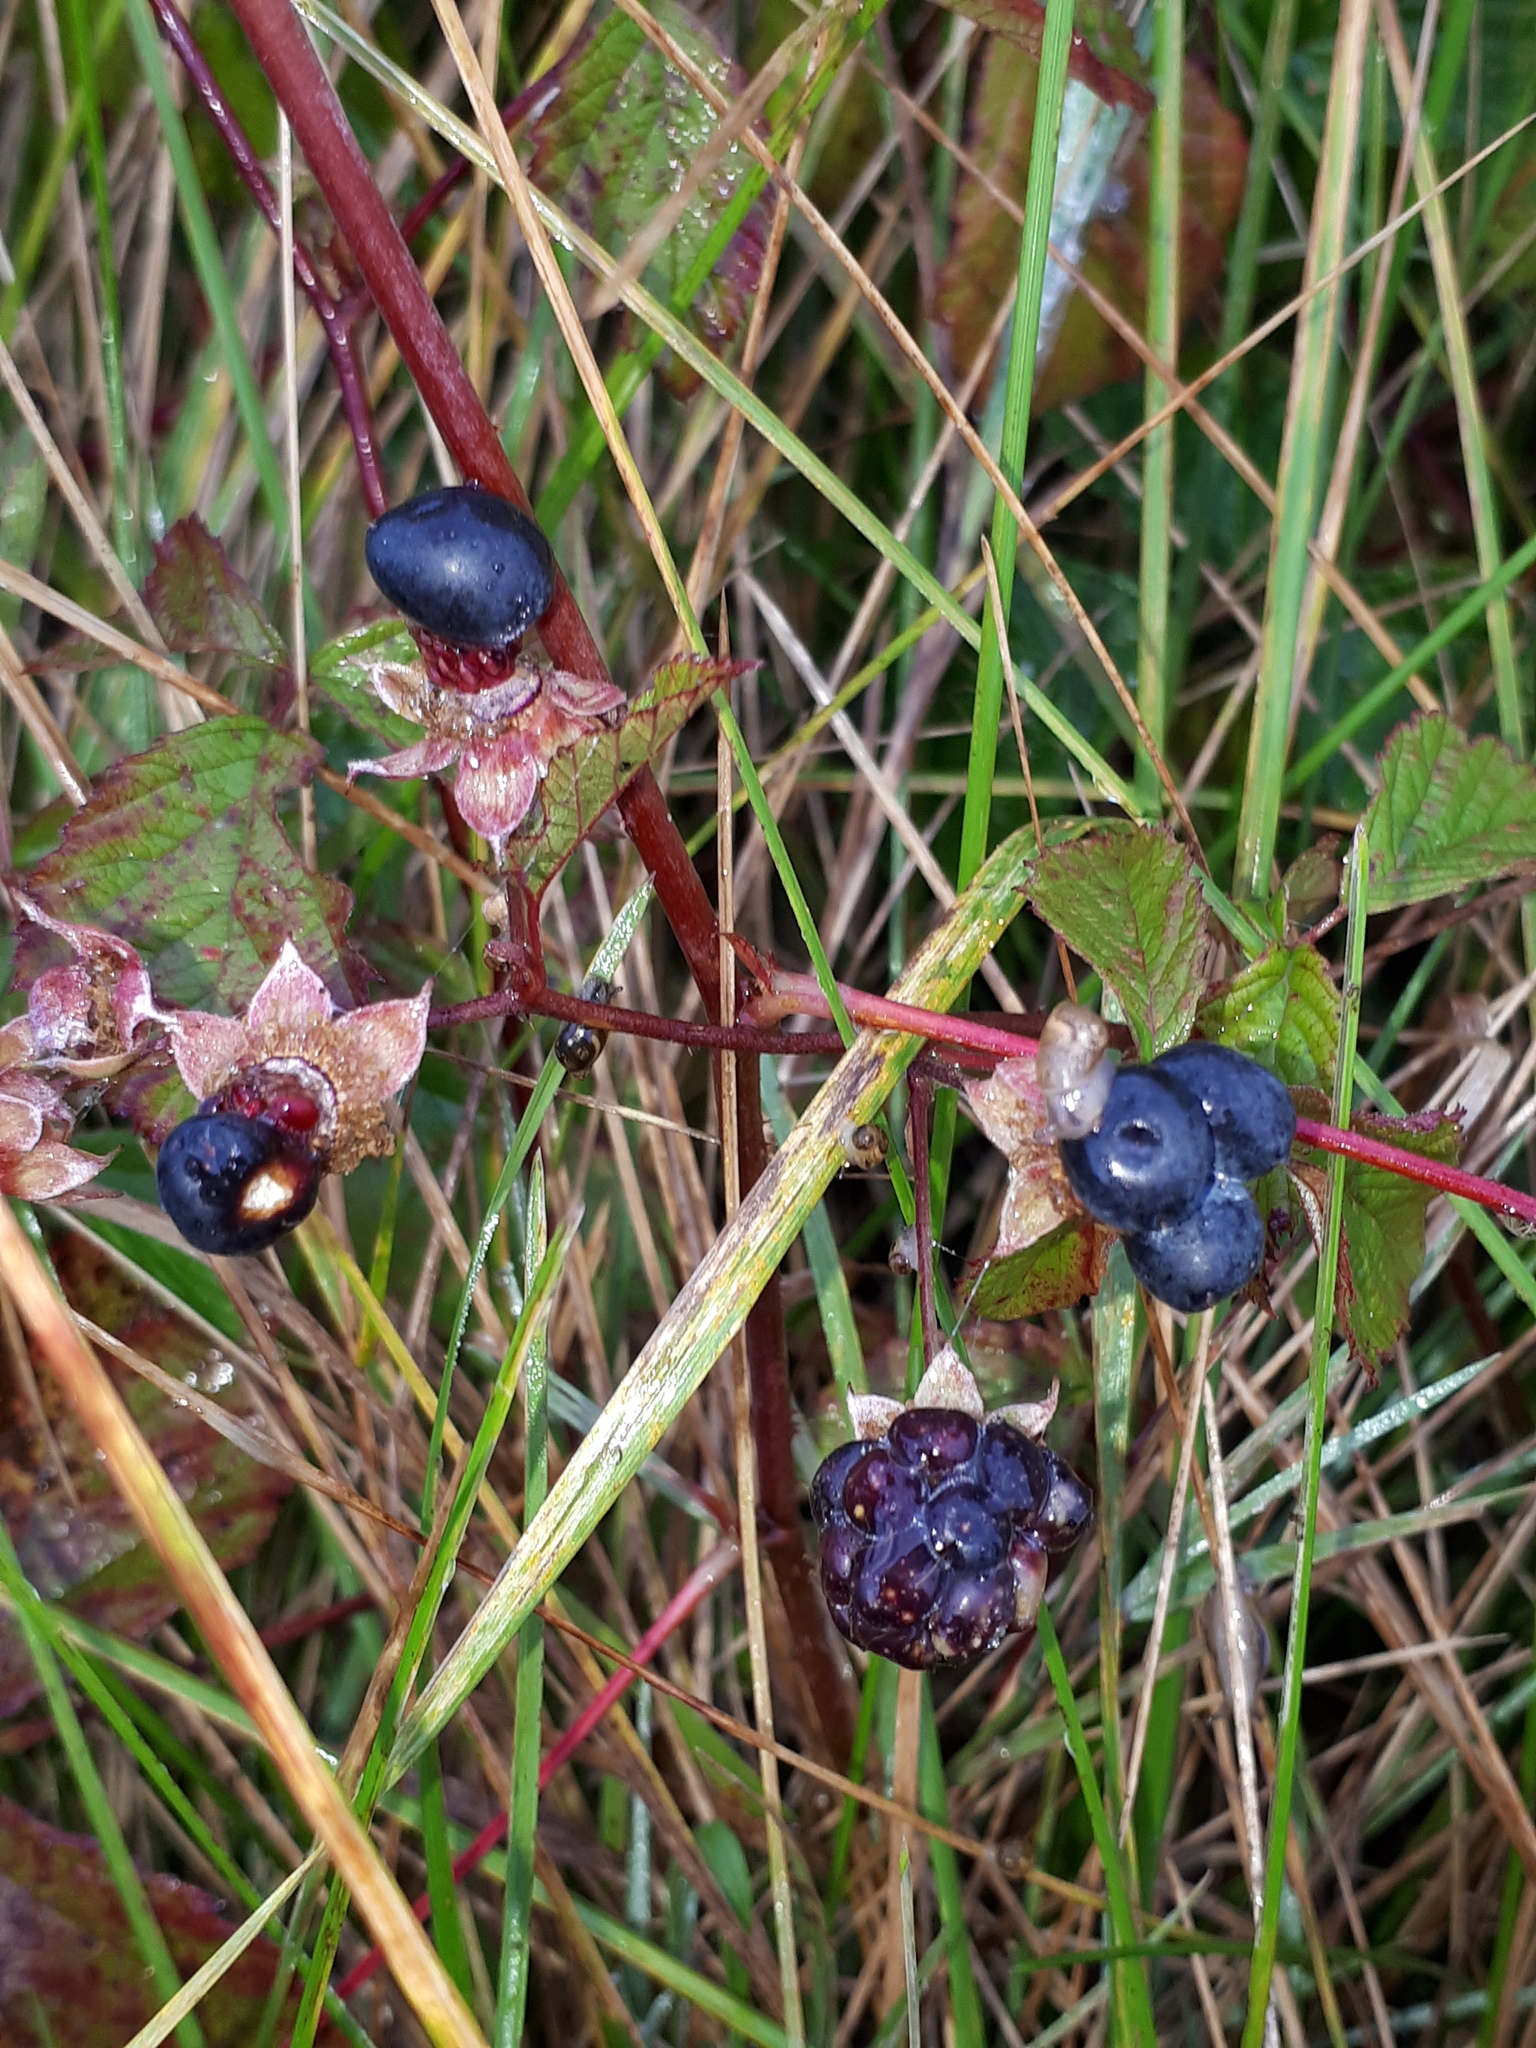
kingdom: Plantae
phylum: Tracheophyta
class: Magnoliopsida
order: Rosales
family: Rosaceae
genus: Rubus
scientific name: Rubus caesius
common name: Dewberry
